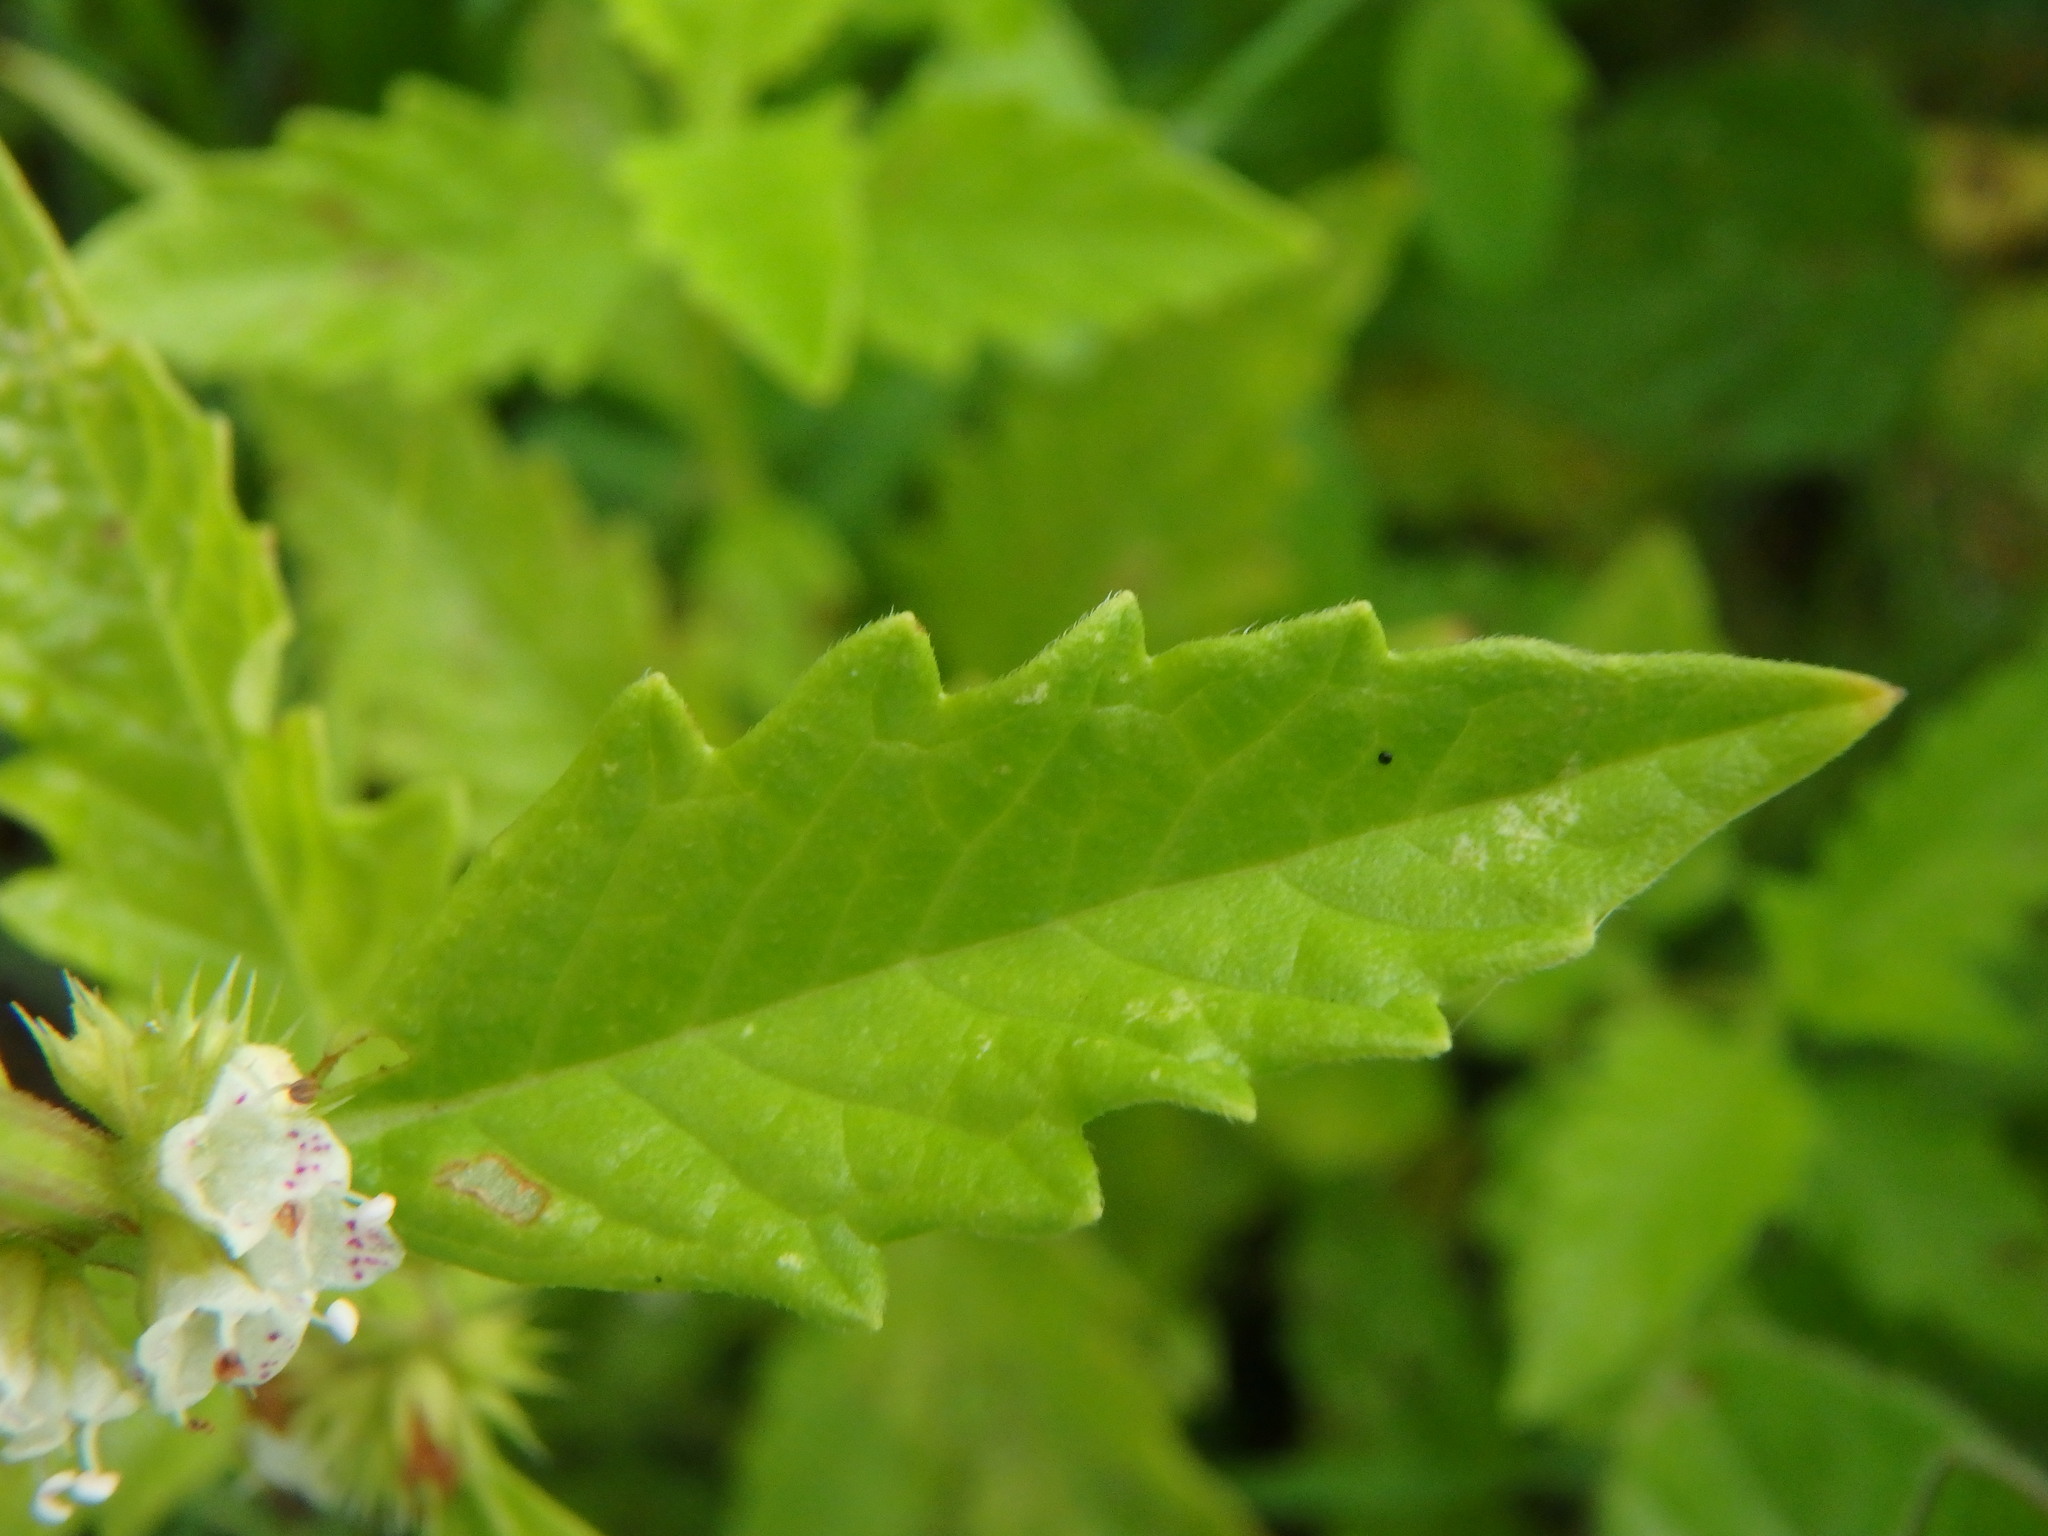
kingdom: Plantae
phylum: Tracheophyta
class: Magnoliopsida
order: Lamiales
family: Lamiaceae
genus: Lycopus
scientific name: Lycopus europaeus
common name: European bugleweed
